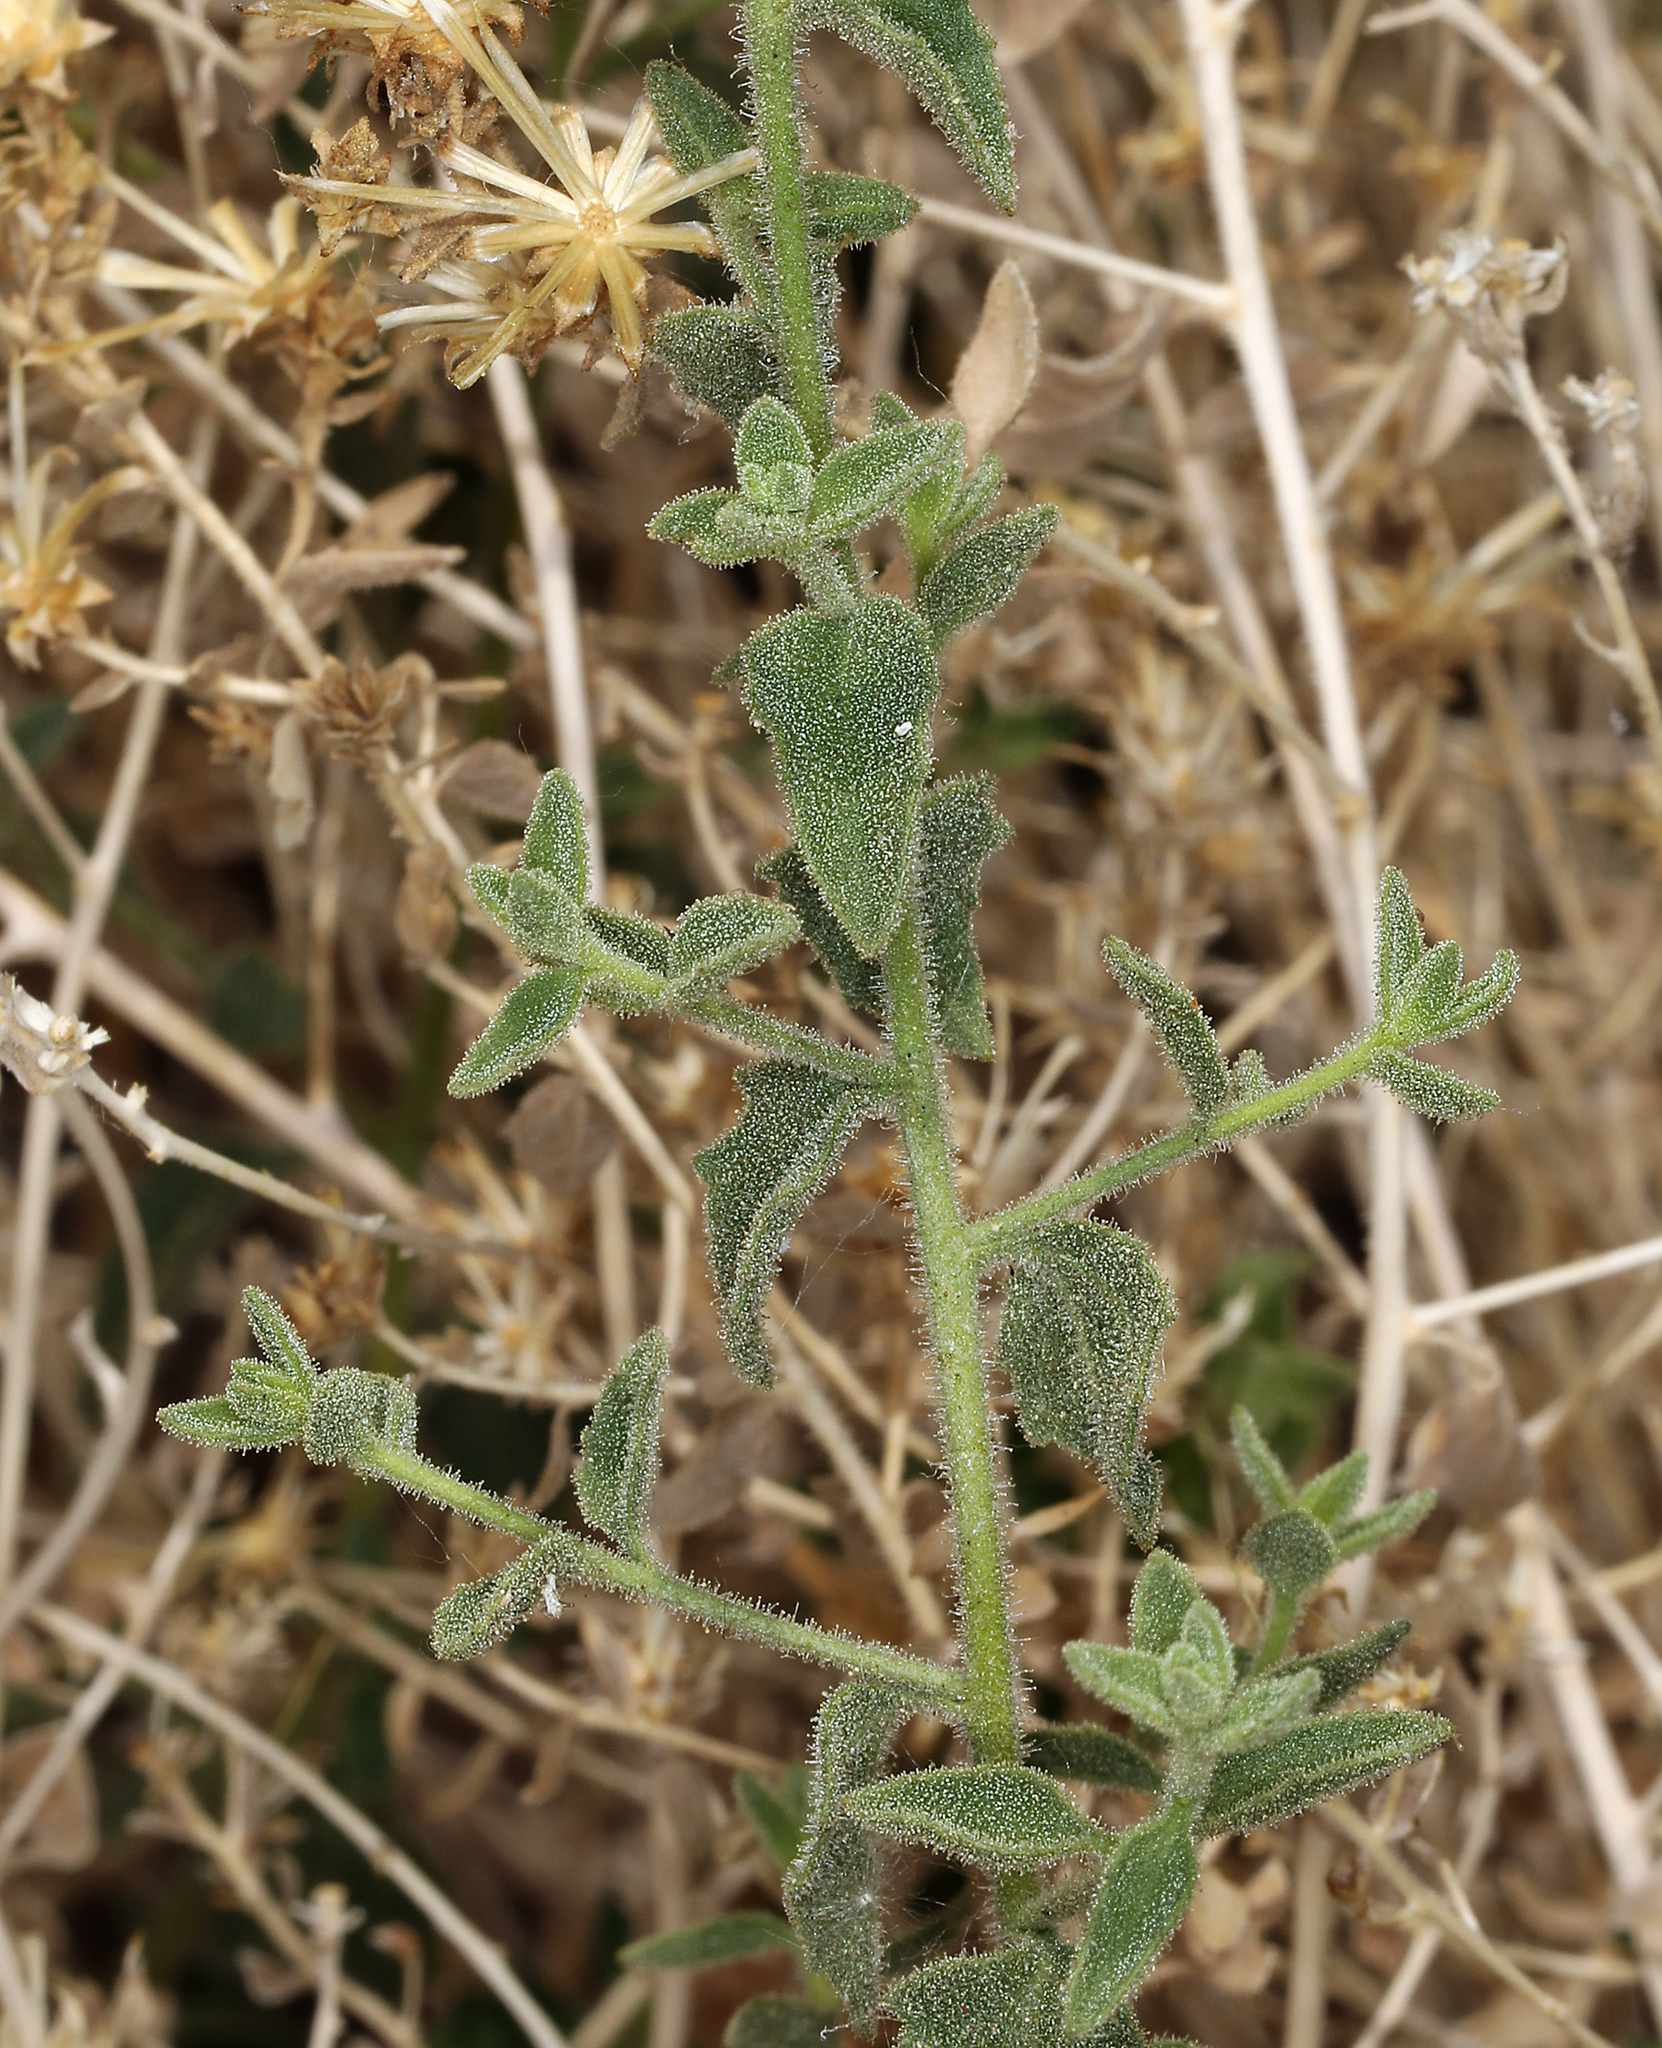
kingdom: Plantae
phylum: Tracheophyta
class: Magnoliopsida
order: Asterales
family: Asteraceae
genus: Brickellia
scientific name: Brickellia microphylla
